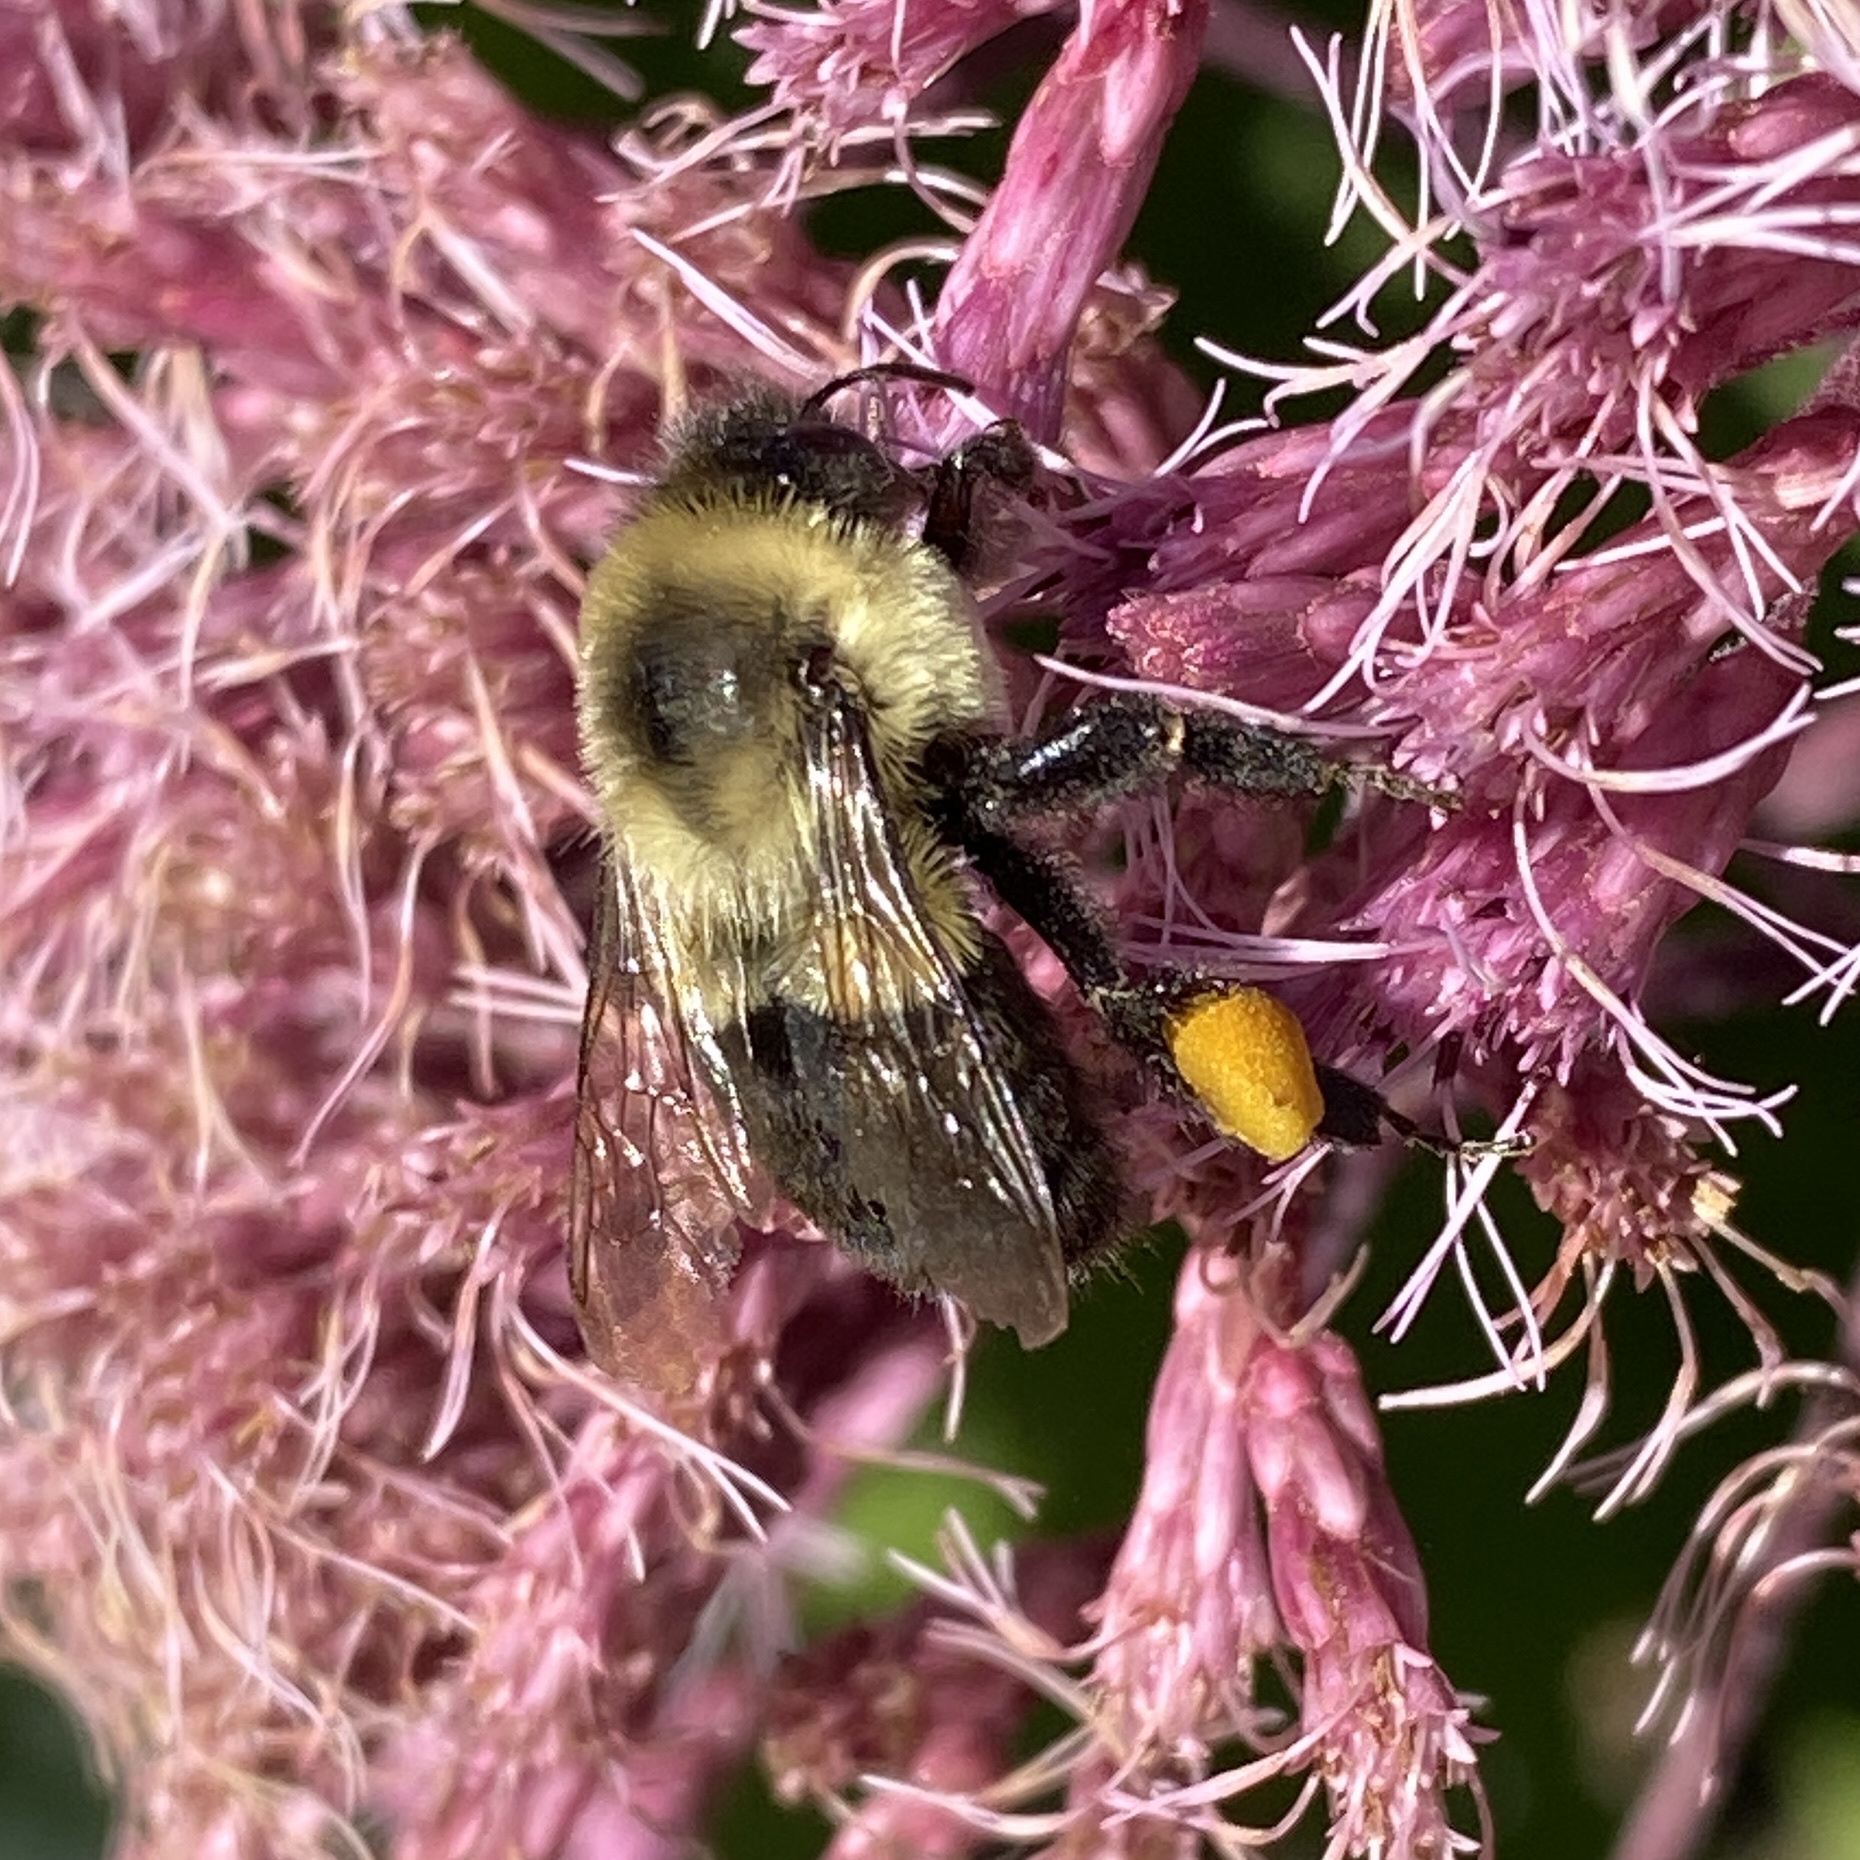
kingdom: Animalia
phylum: Arthropoda
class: Insecta
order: Hymenoptera
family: Apidae
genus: Bombus
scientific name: Bombus impatiens
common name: Common eastern bumble bee
